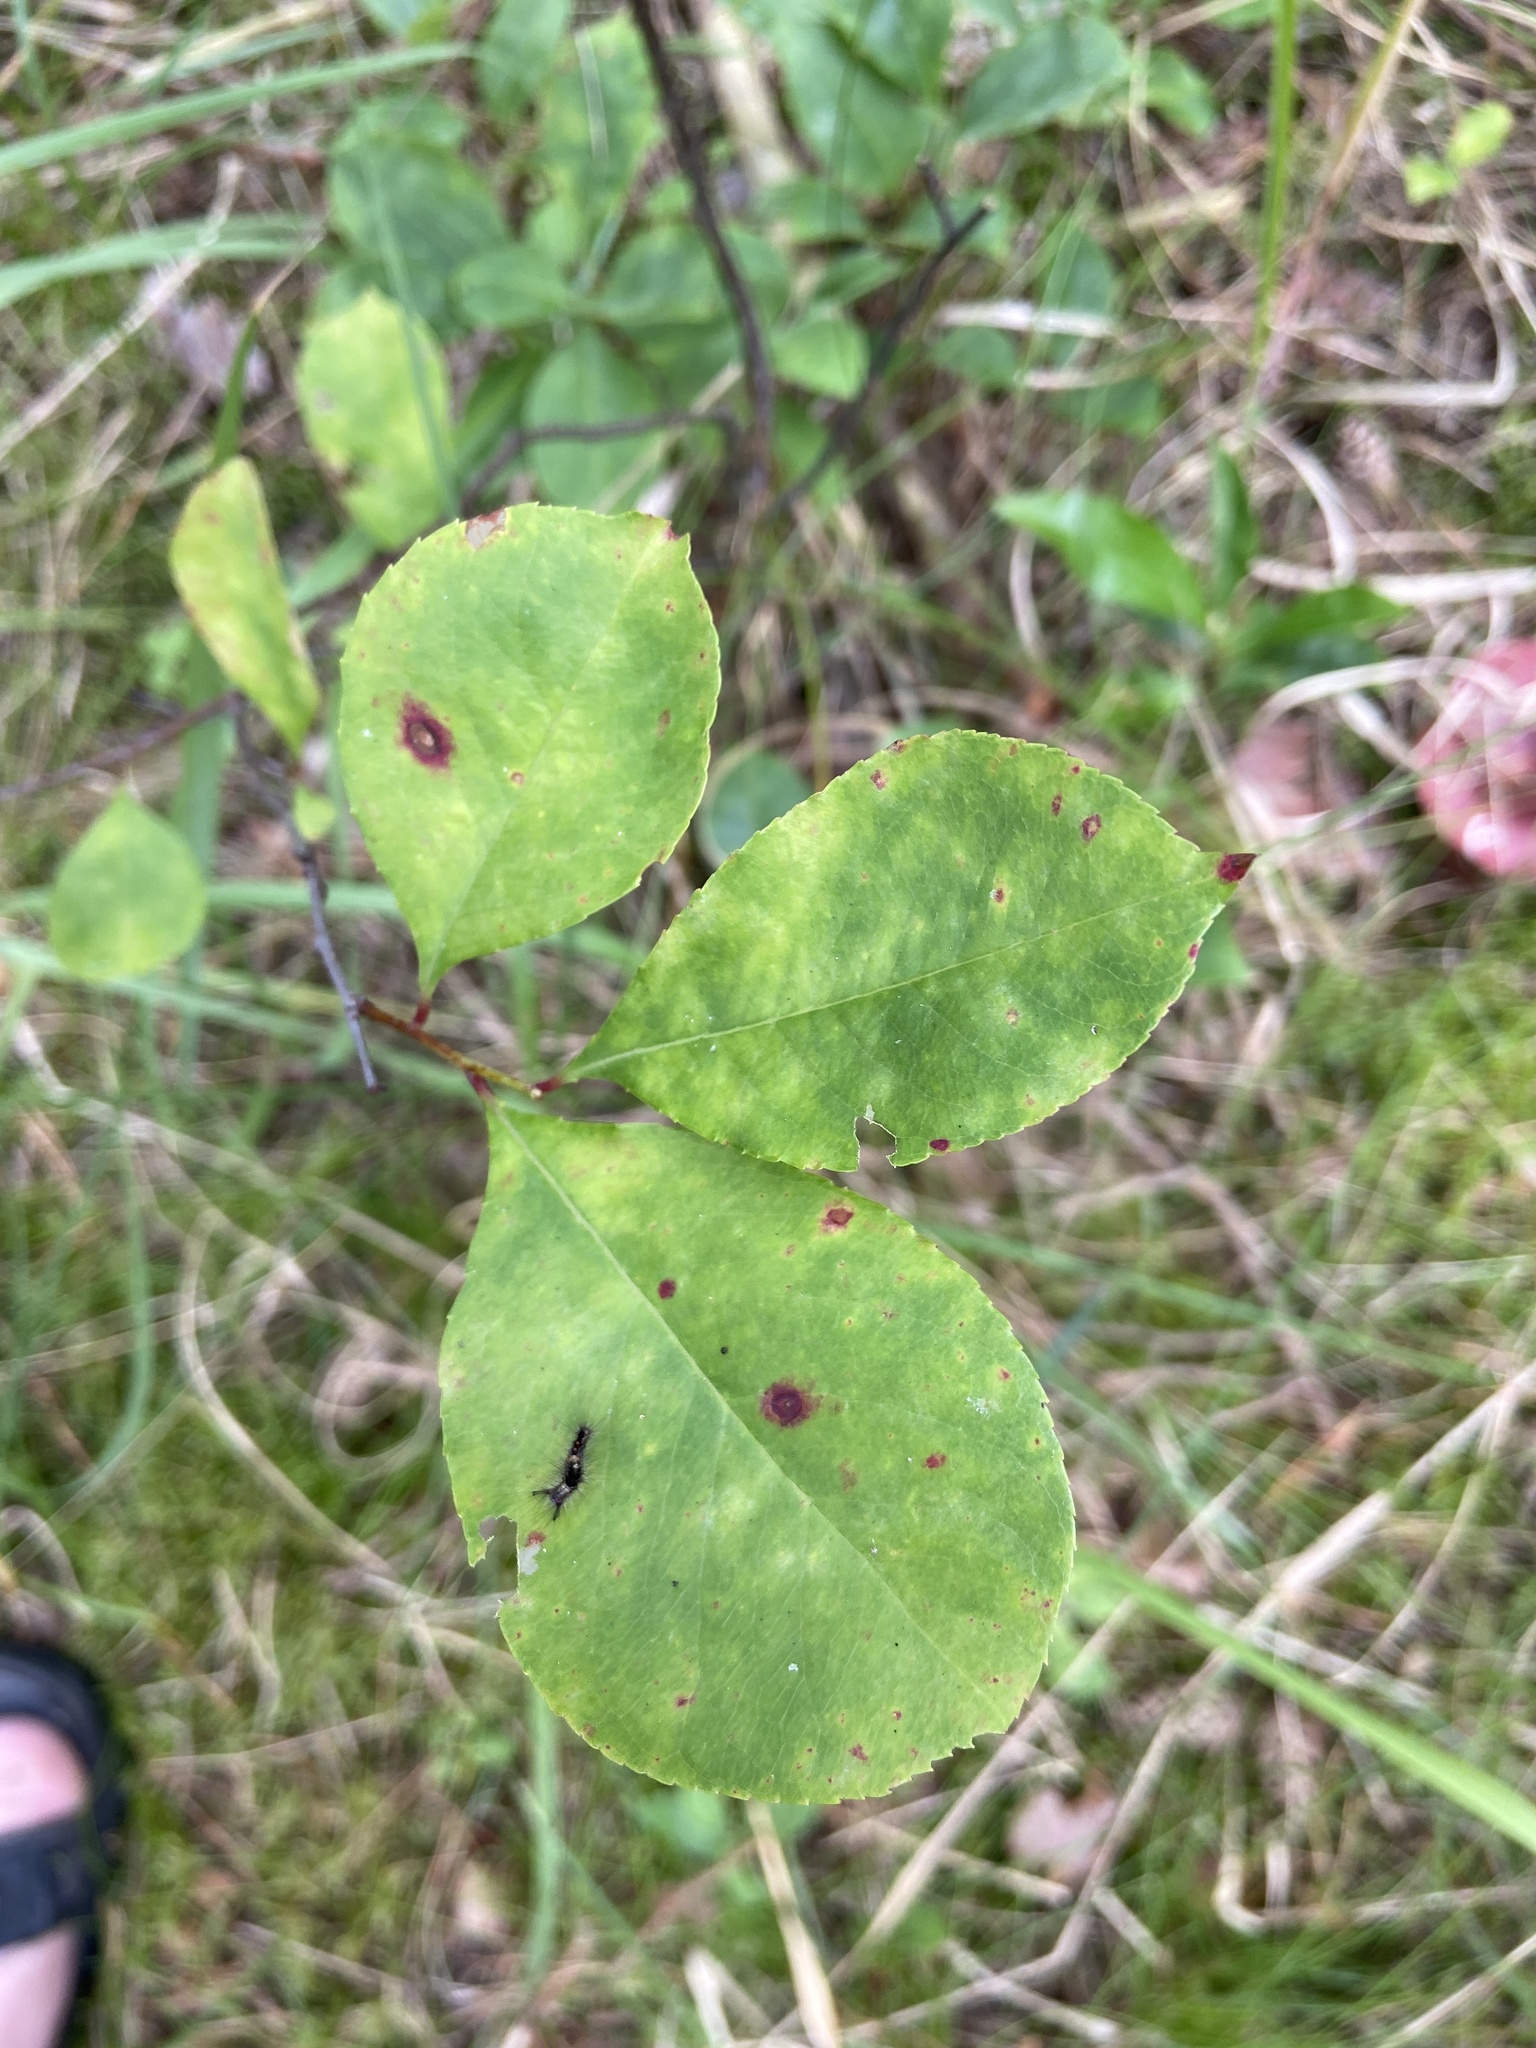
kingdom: Animalia
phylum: Arthropoda
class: Insecta
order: Lepidoptera
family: Erebidae
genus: Orgyia
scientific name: Orgyia antiqua
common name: Vapourer
